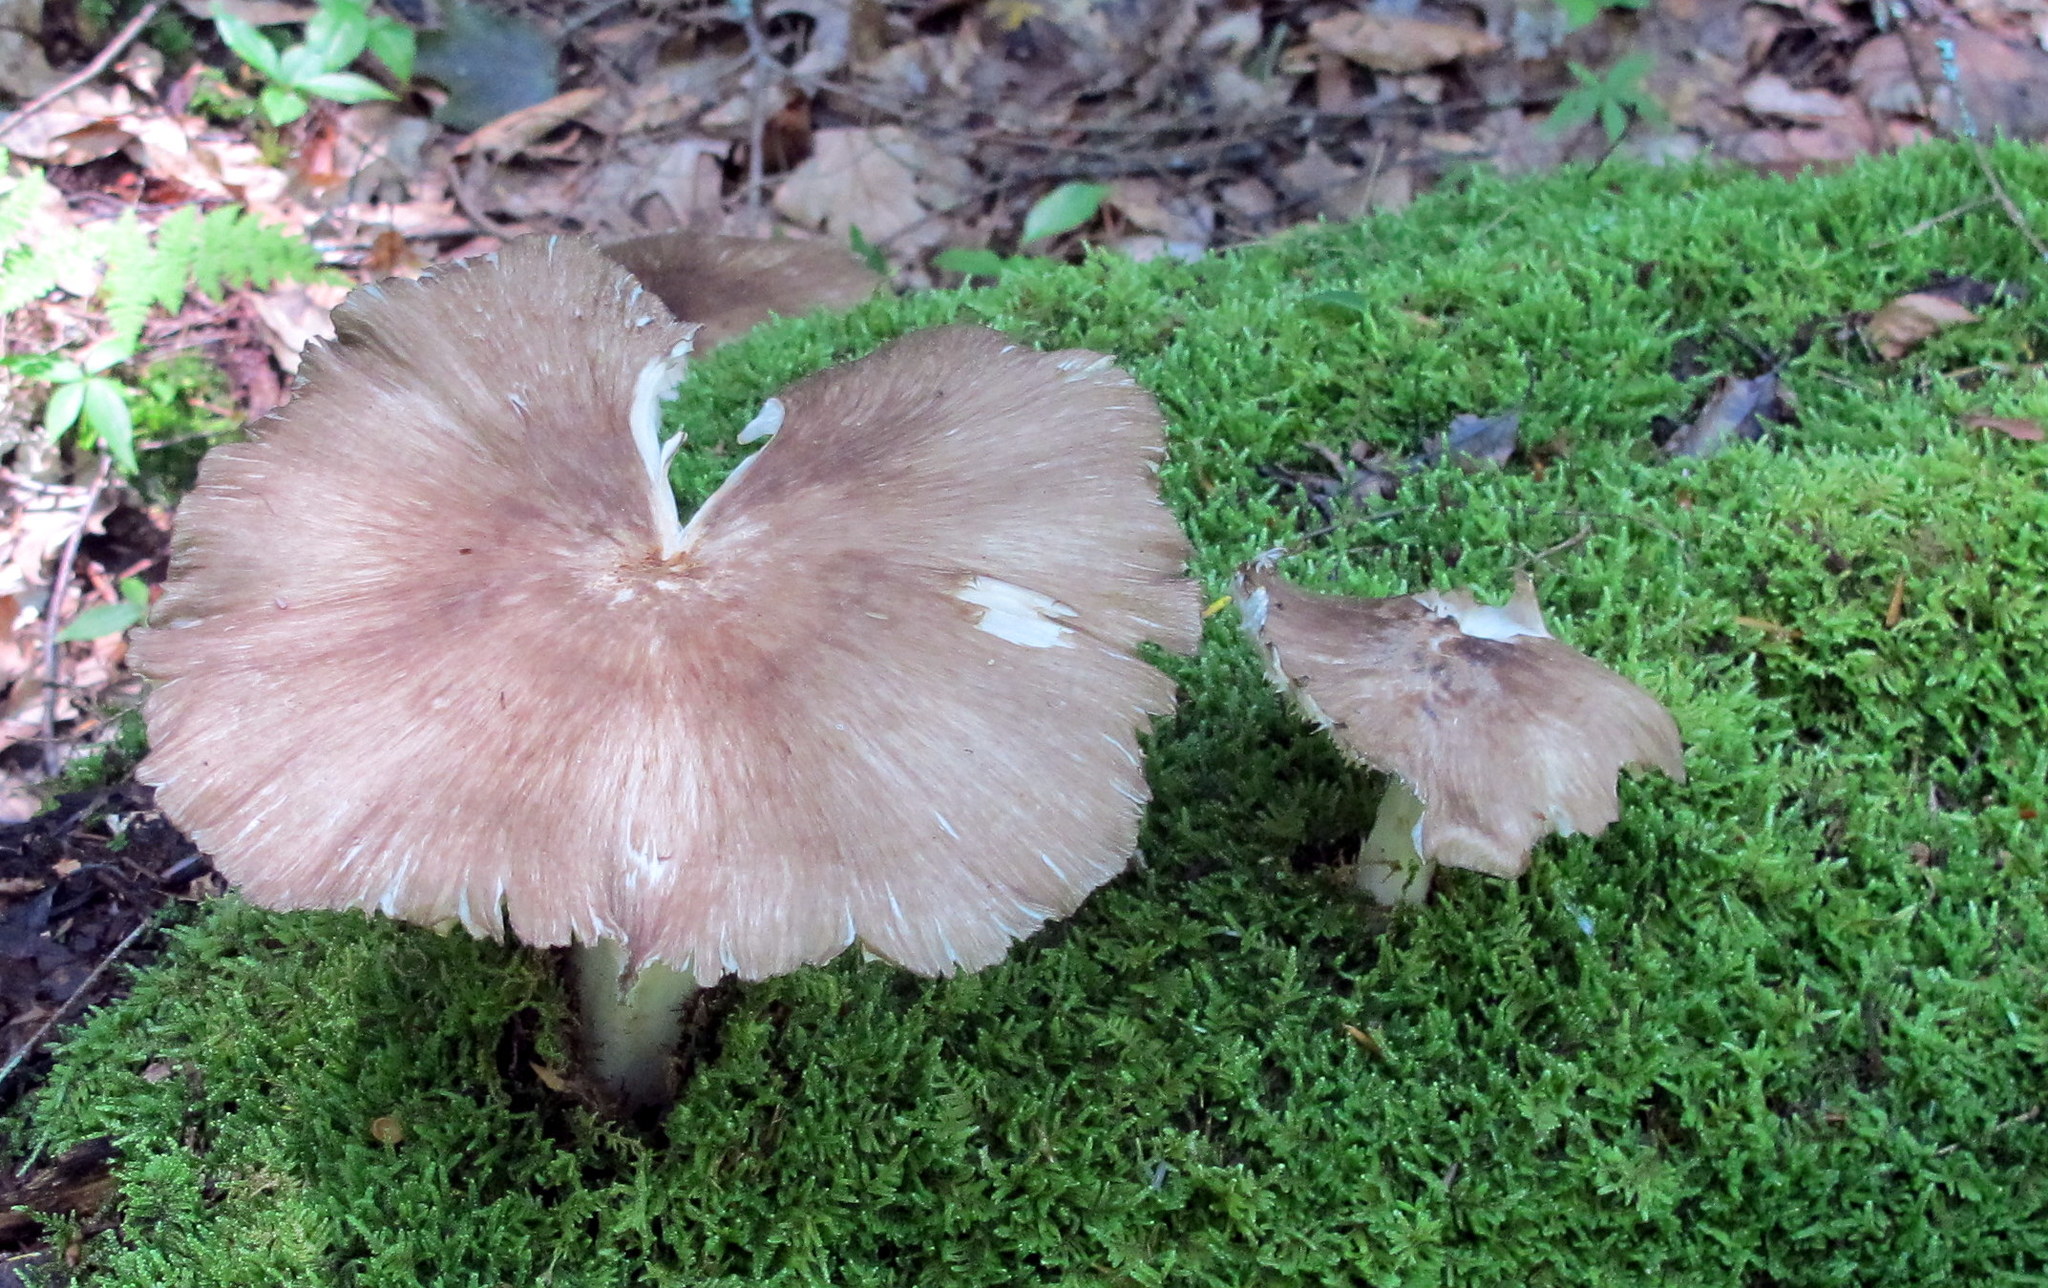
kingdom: Fungi
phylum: Basidiomycota
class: Agaricomycetes
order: Agaricales
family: Tricholomataceae
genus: Megacollybia
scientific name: Megacollybia rodmanii
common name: Eastern american platterful mushroom
